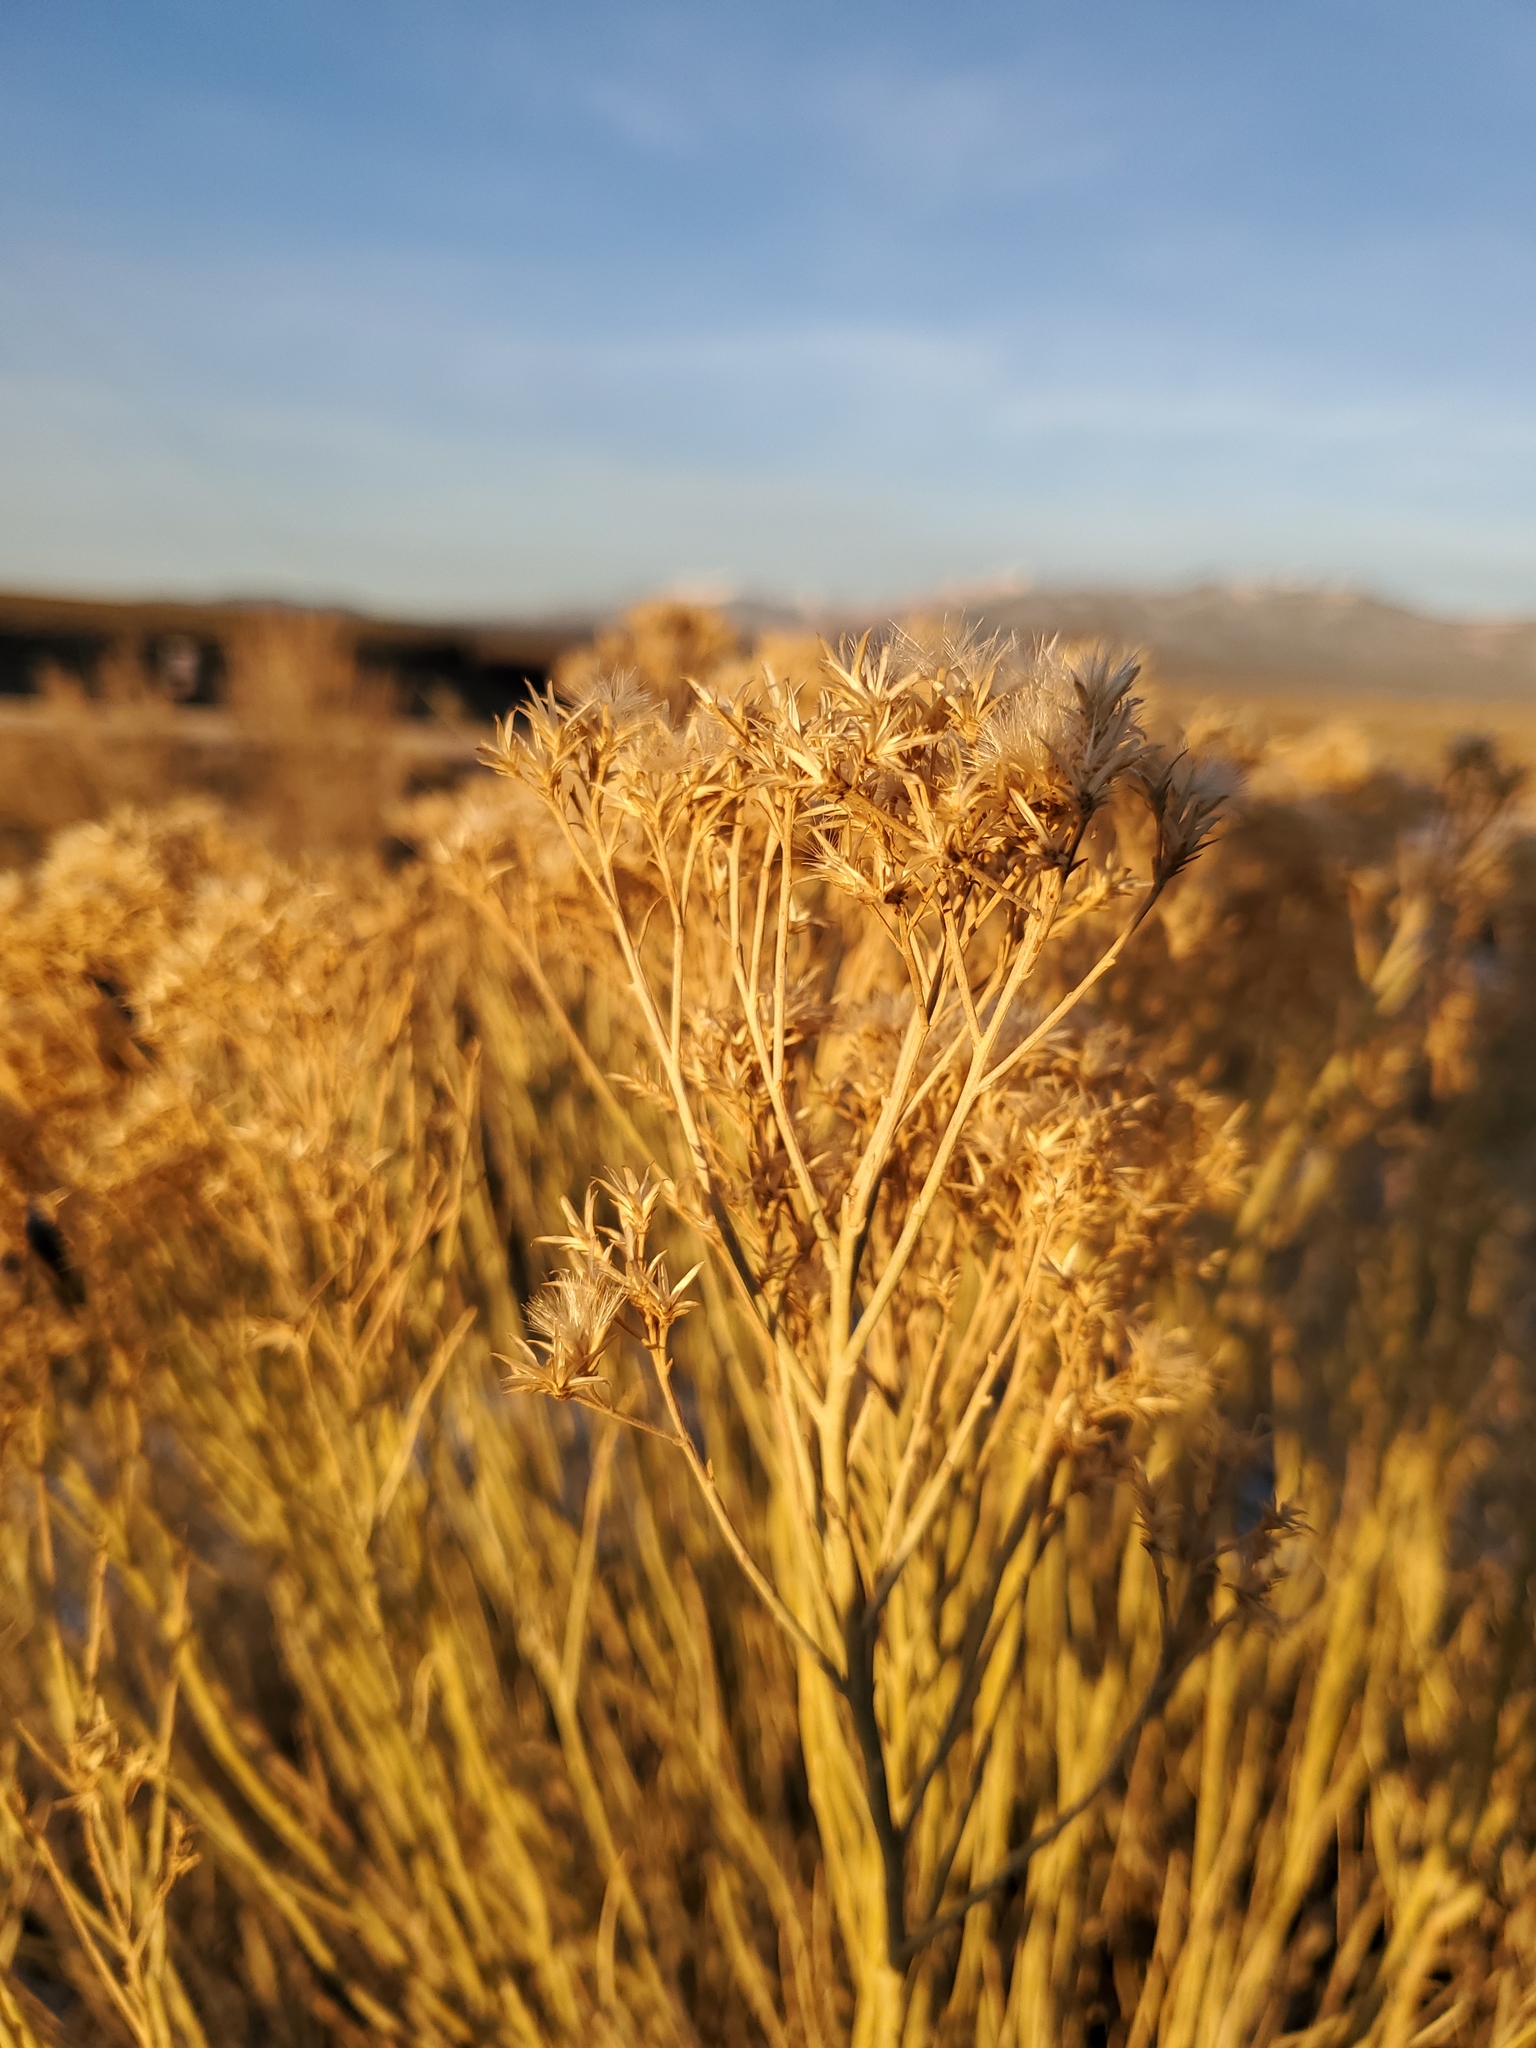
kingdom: Plantae
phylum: Tracheophyta
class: Magnoliopsida
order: Asterales
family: Asteraceae
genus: Ericameria
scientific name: Ericameria nauseosa
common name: Rubber rabbitbrush
